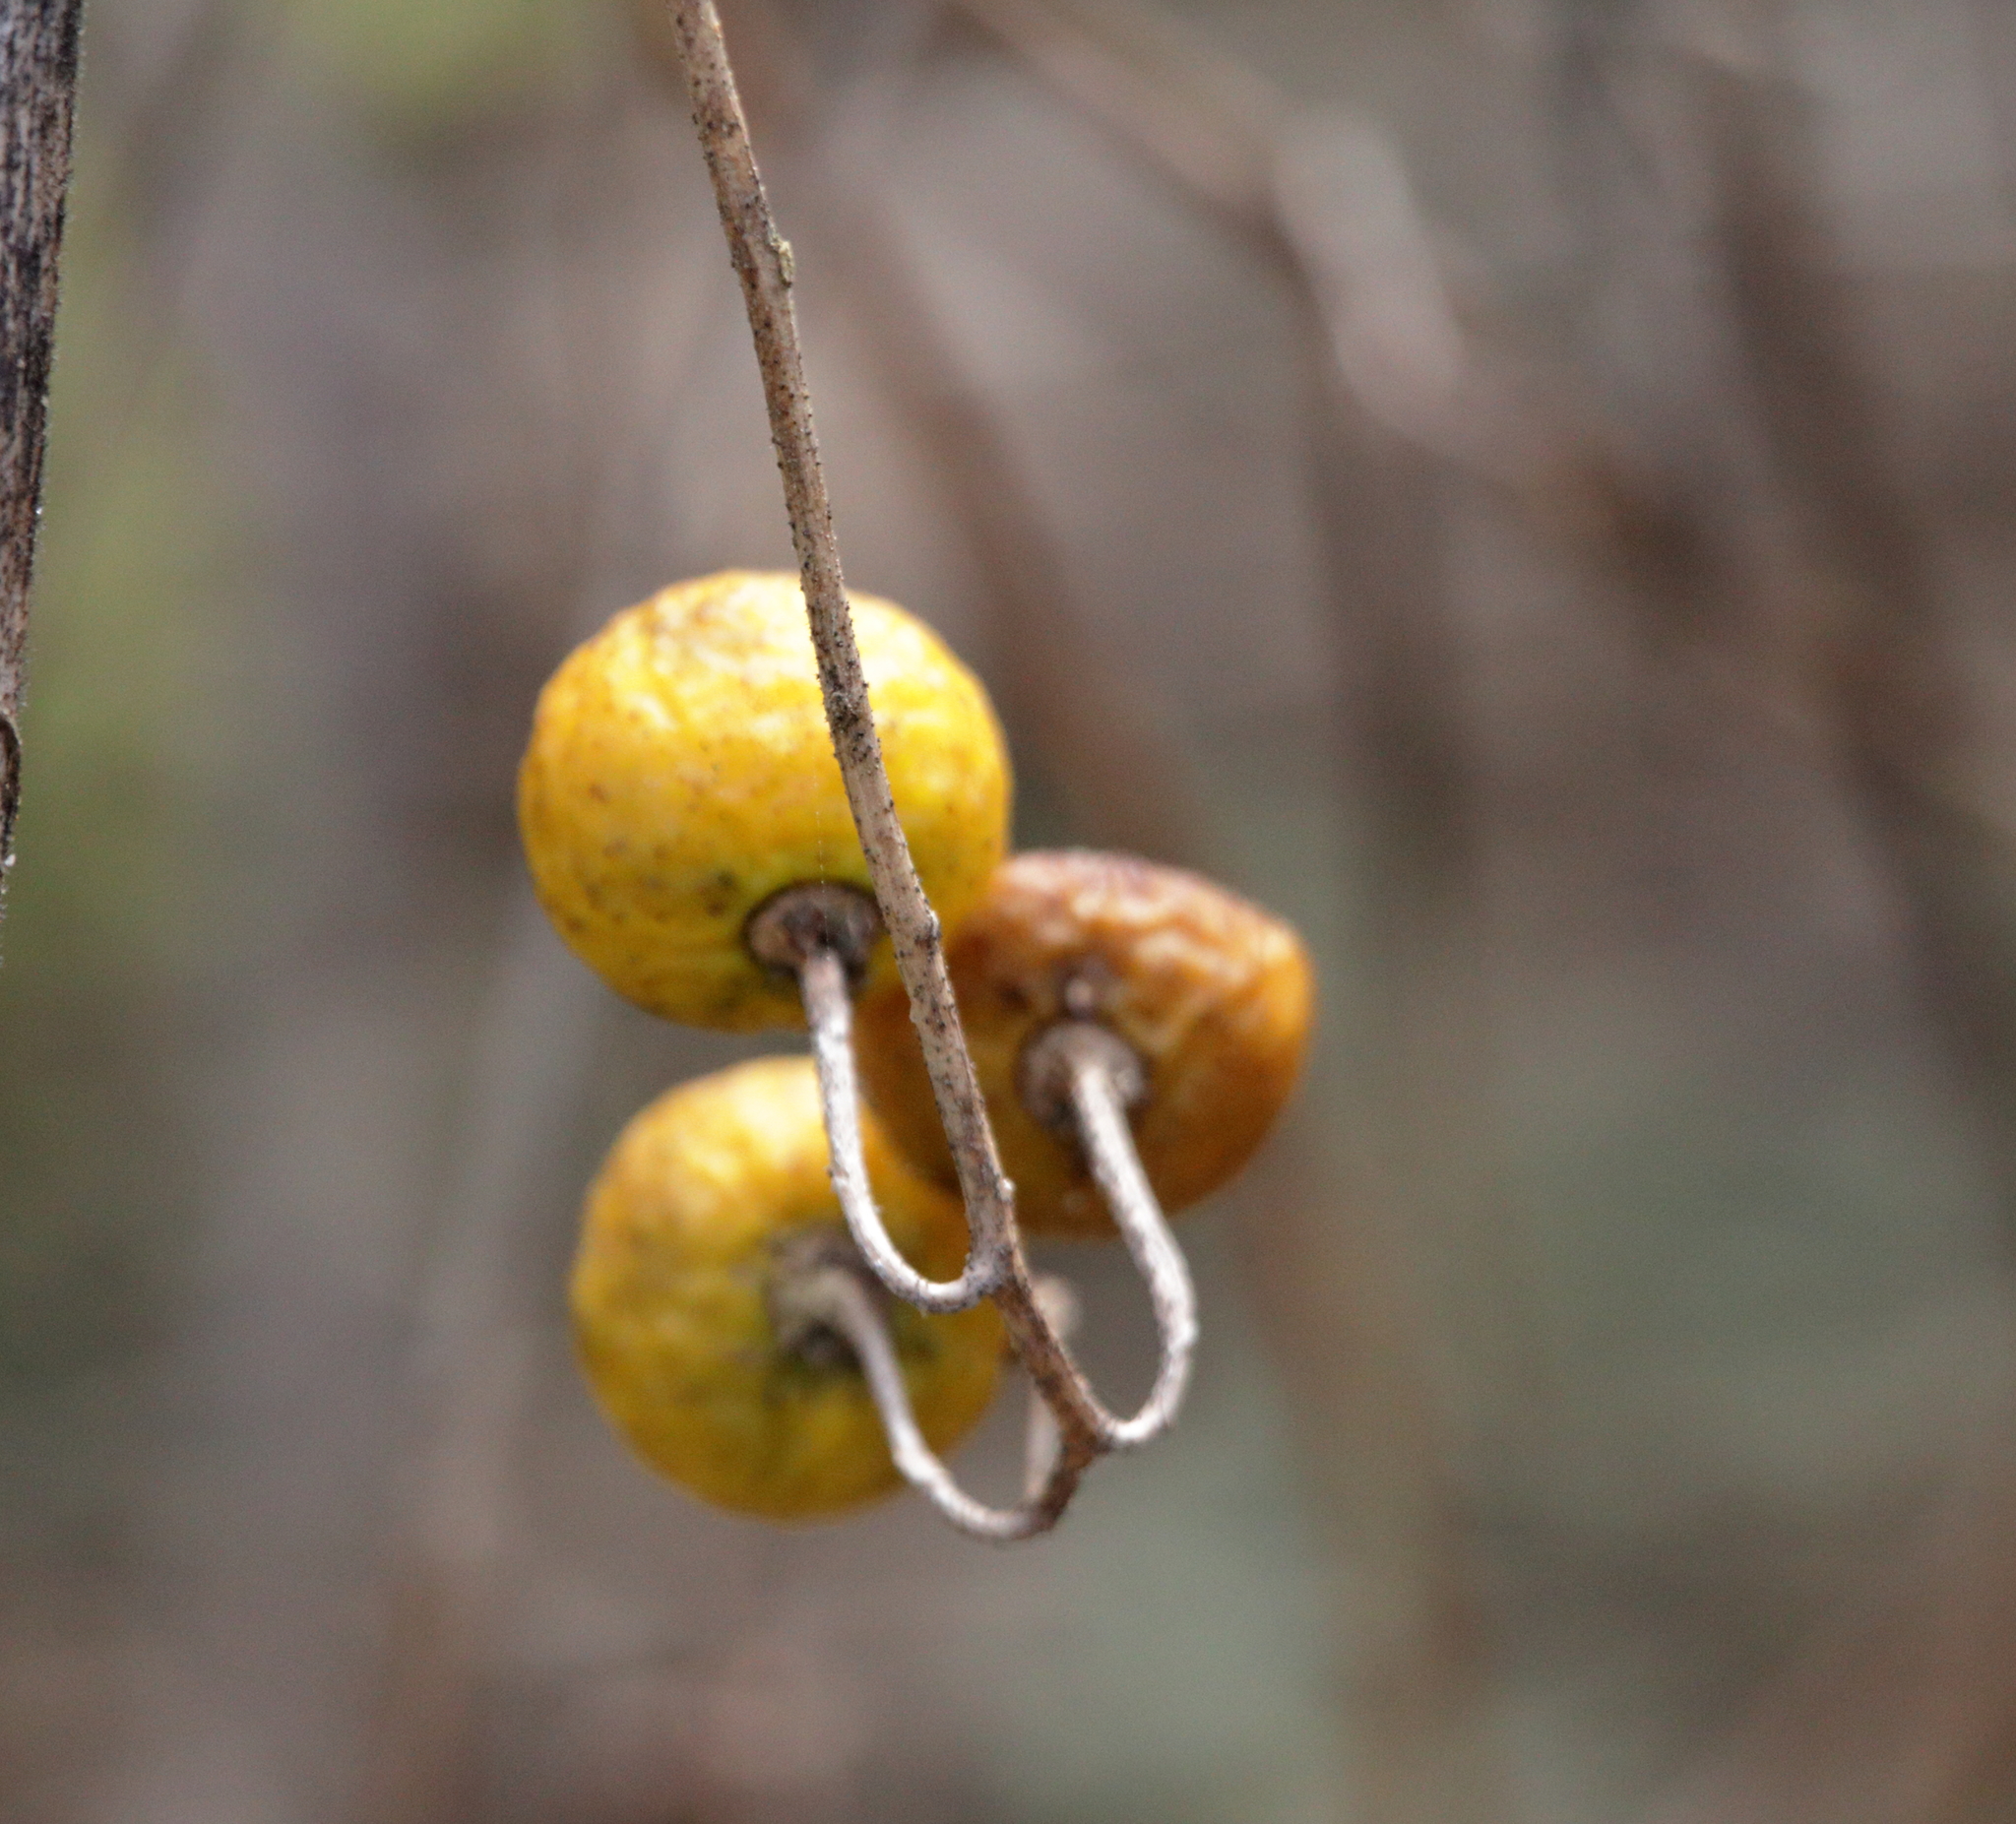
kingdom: Plantae
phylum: Tracheophyta
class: Magnoliopsida
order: Solanales
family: Solanaceae
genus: Solanum
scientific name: Solanum carolinense
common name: Horse-nettle
